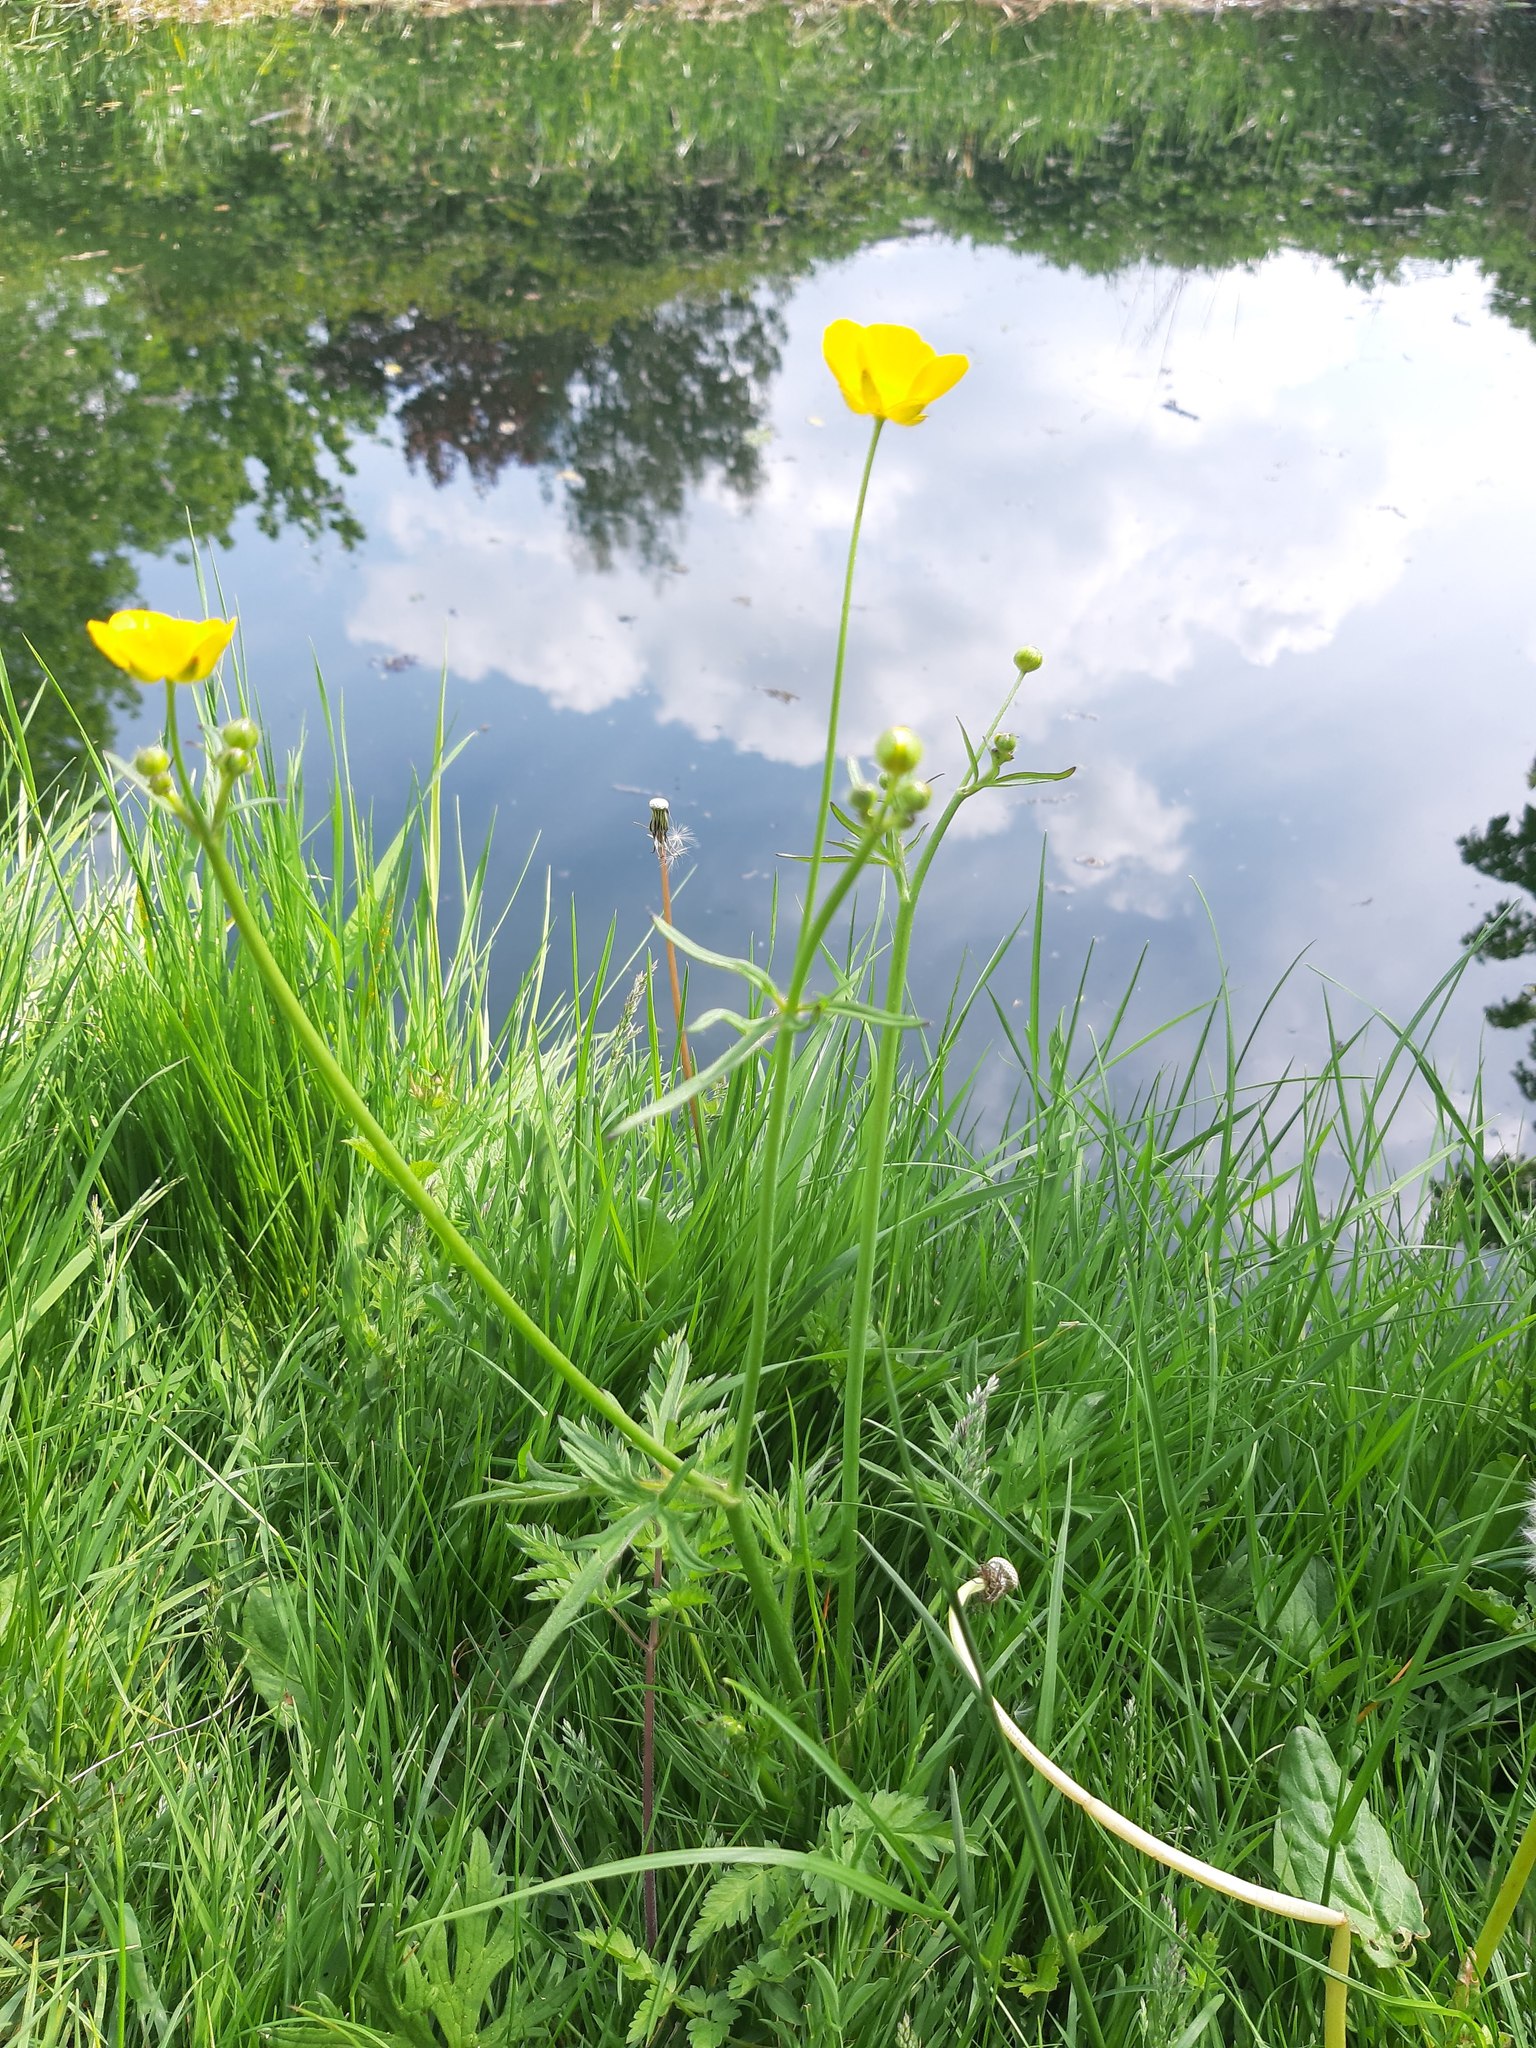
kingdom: Plantae
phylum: Tracheophyta
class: Magnoliopsida
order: Ranunculales
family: Ranunculaceae
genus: Ranunculus
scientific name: Ranunculus acris
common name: Meadow buttercup
